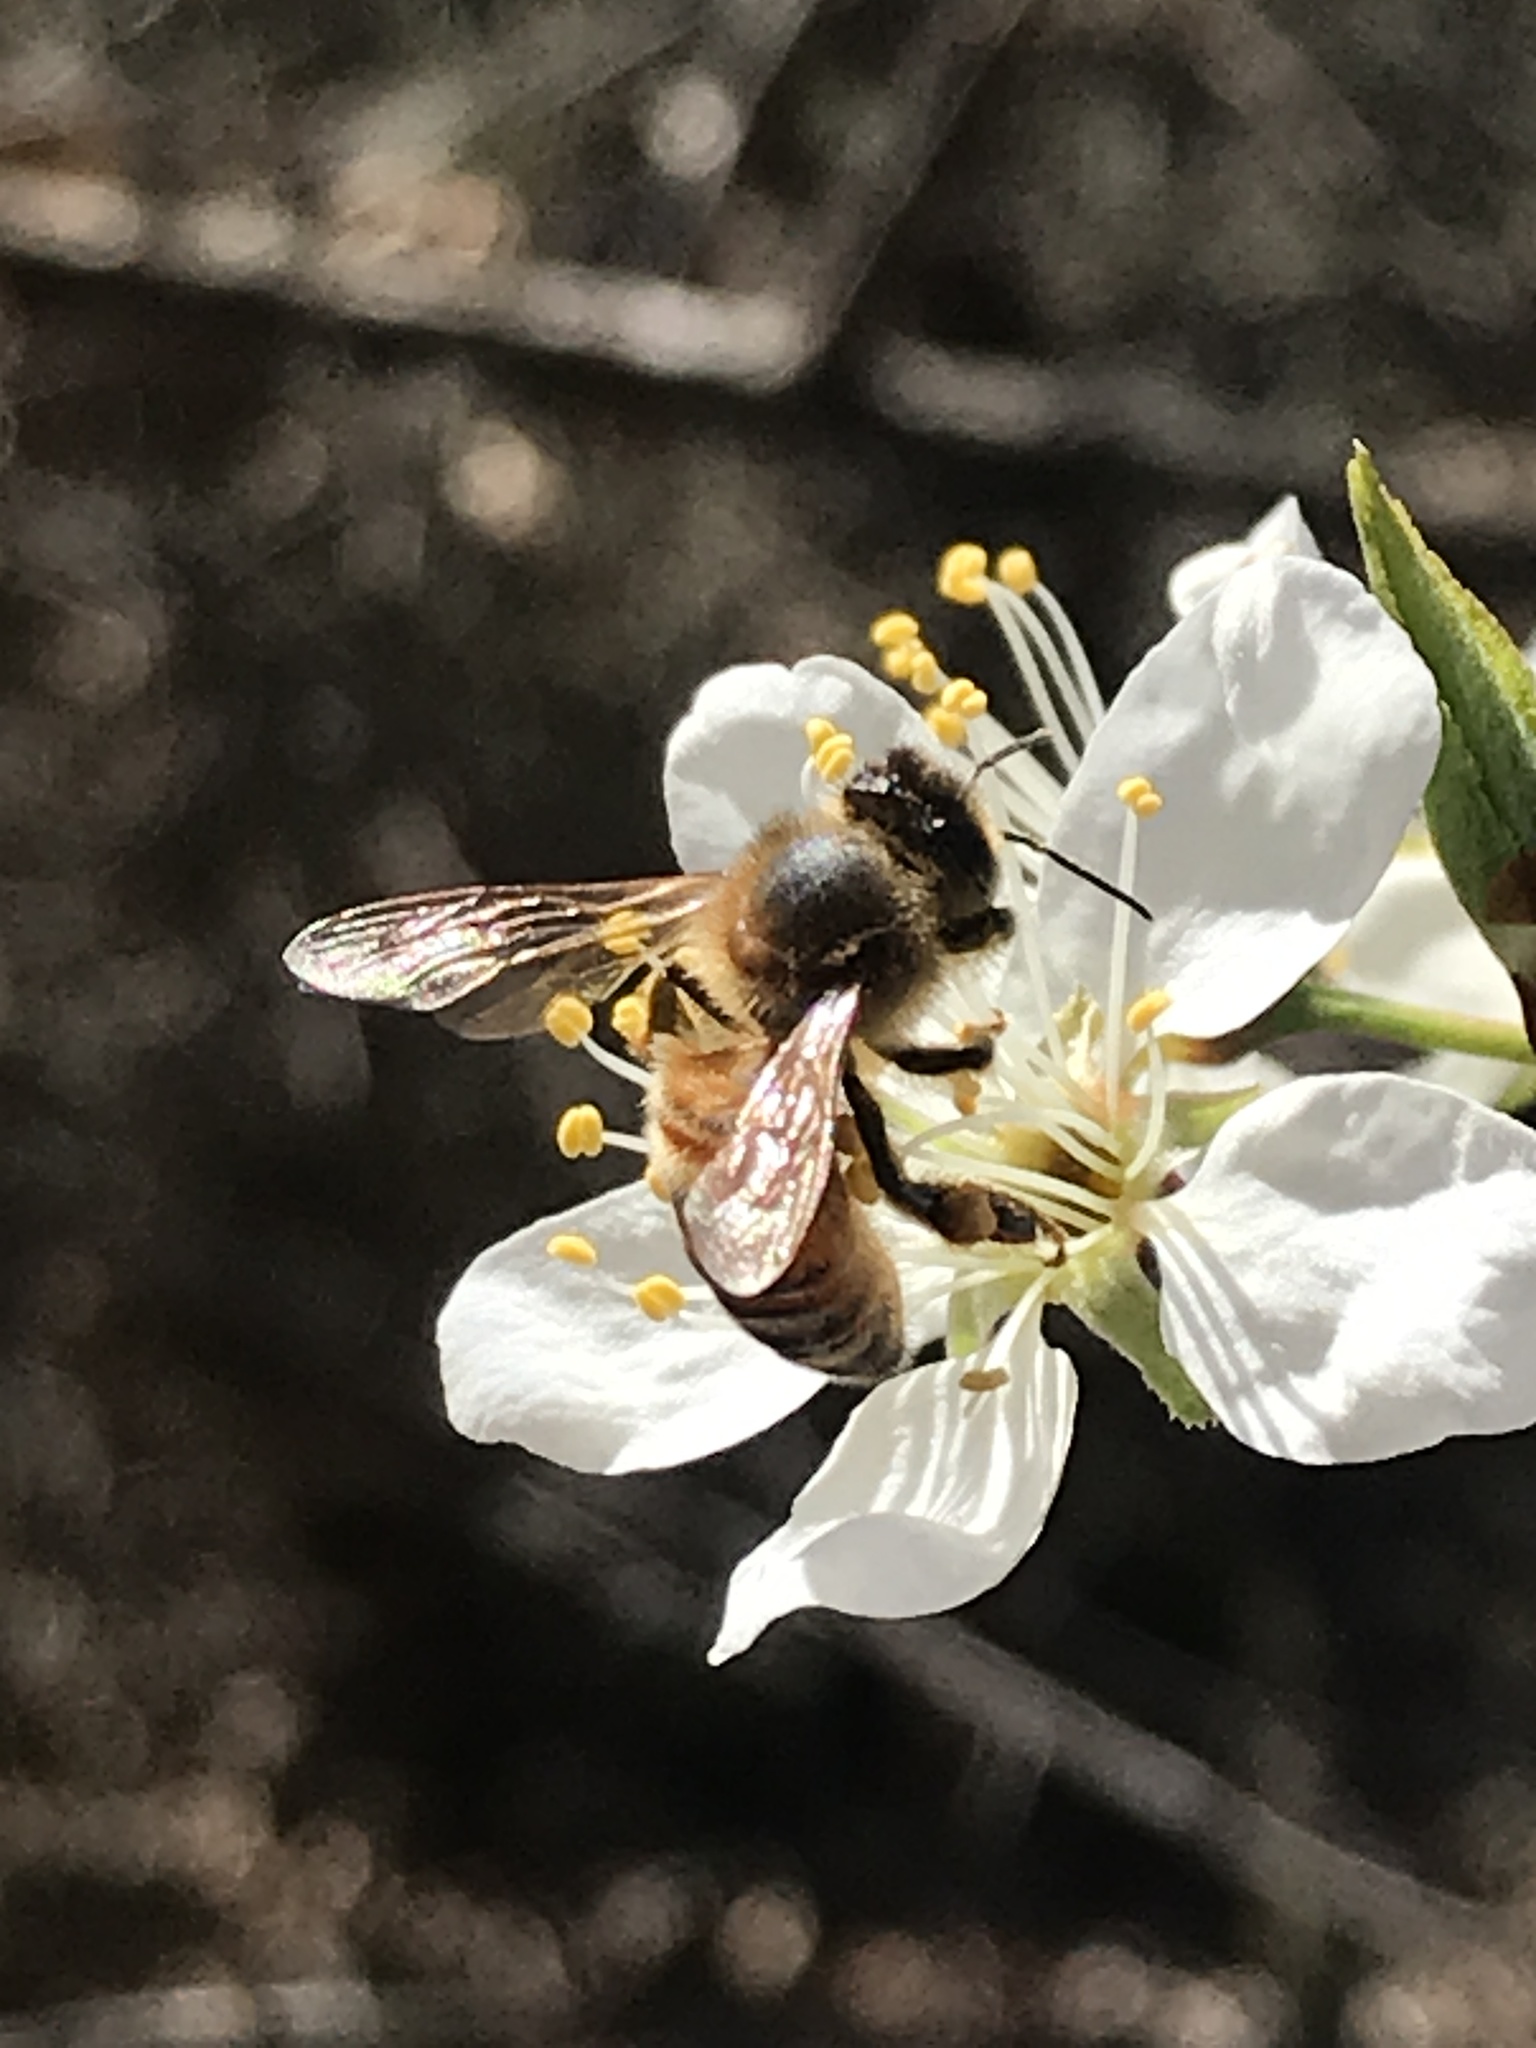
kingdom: Animalia
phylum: Arthropoda
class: Insecta
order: Hymenoptera
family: Apidae
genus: Apis
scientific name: Apis mellifera
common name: Honey bee
